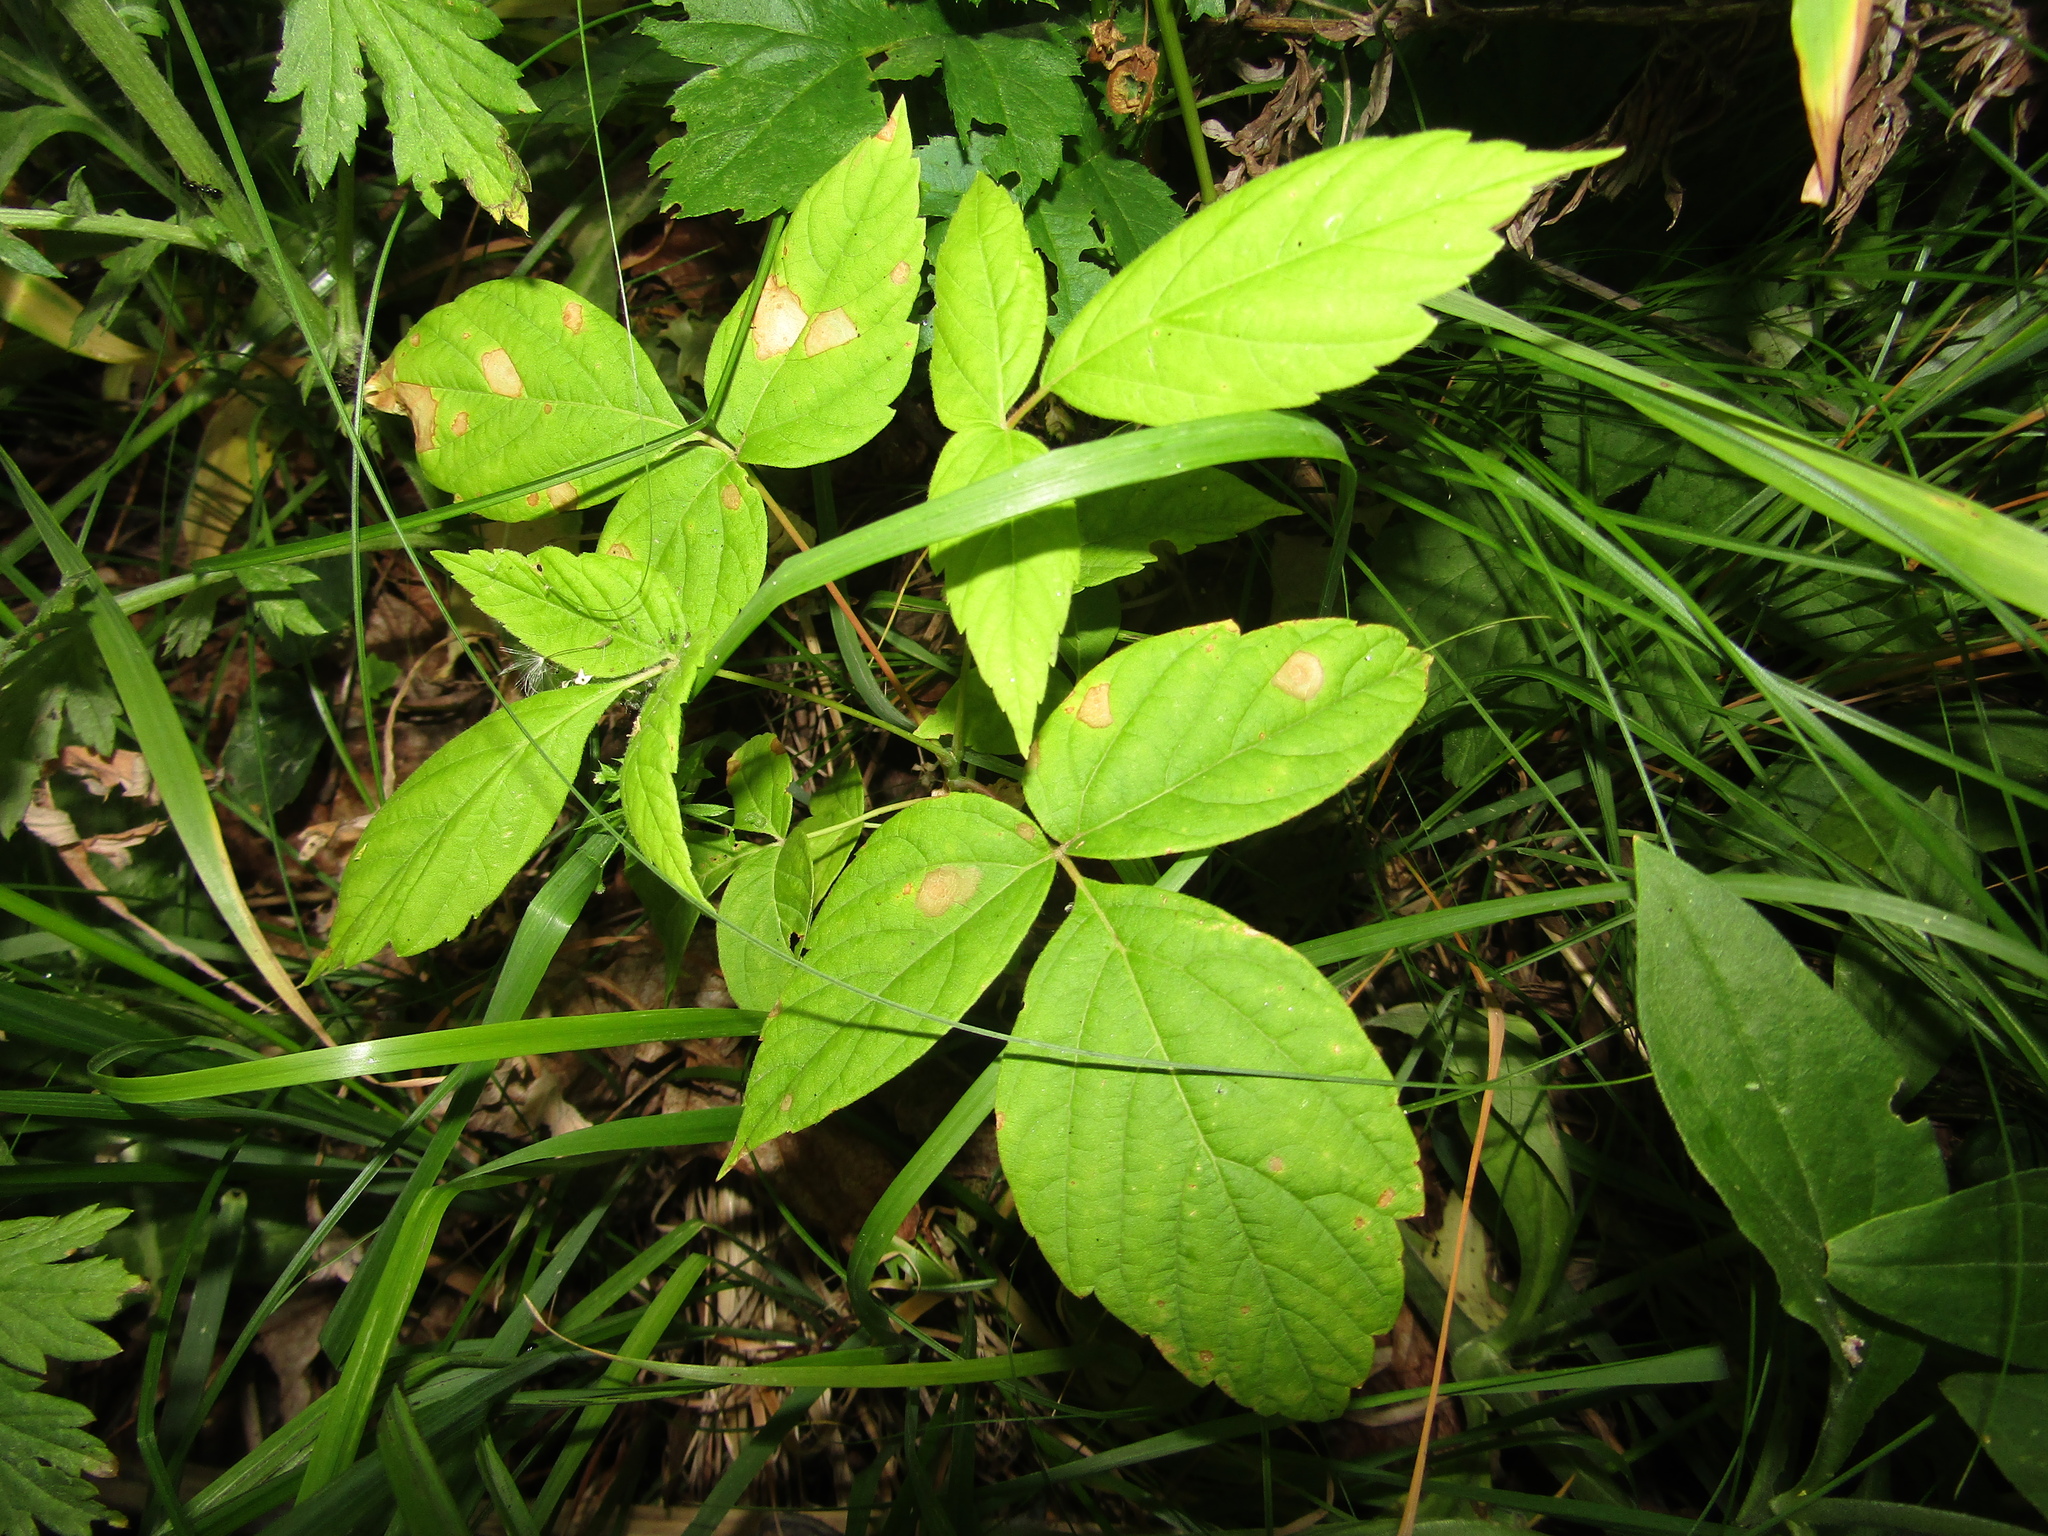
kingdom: Plantae
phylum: Tracheophyta
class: Magnoliopsida
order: Sapindales
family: Sapindaceae
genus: Acer
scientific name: Acer negundo
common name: Ashleaf maple
